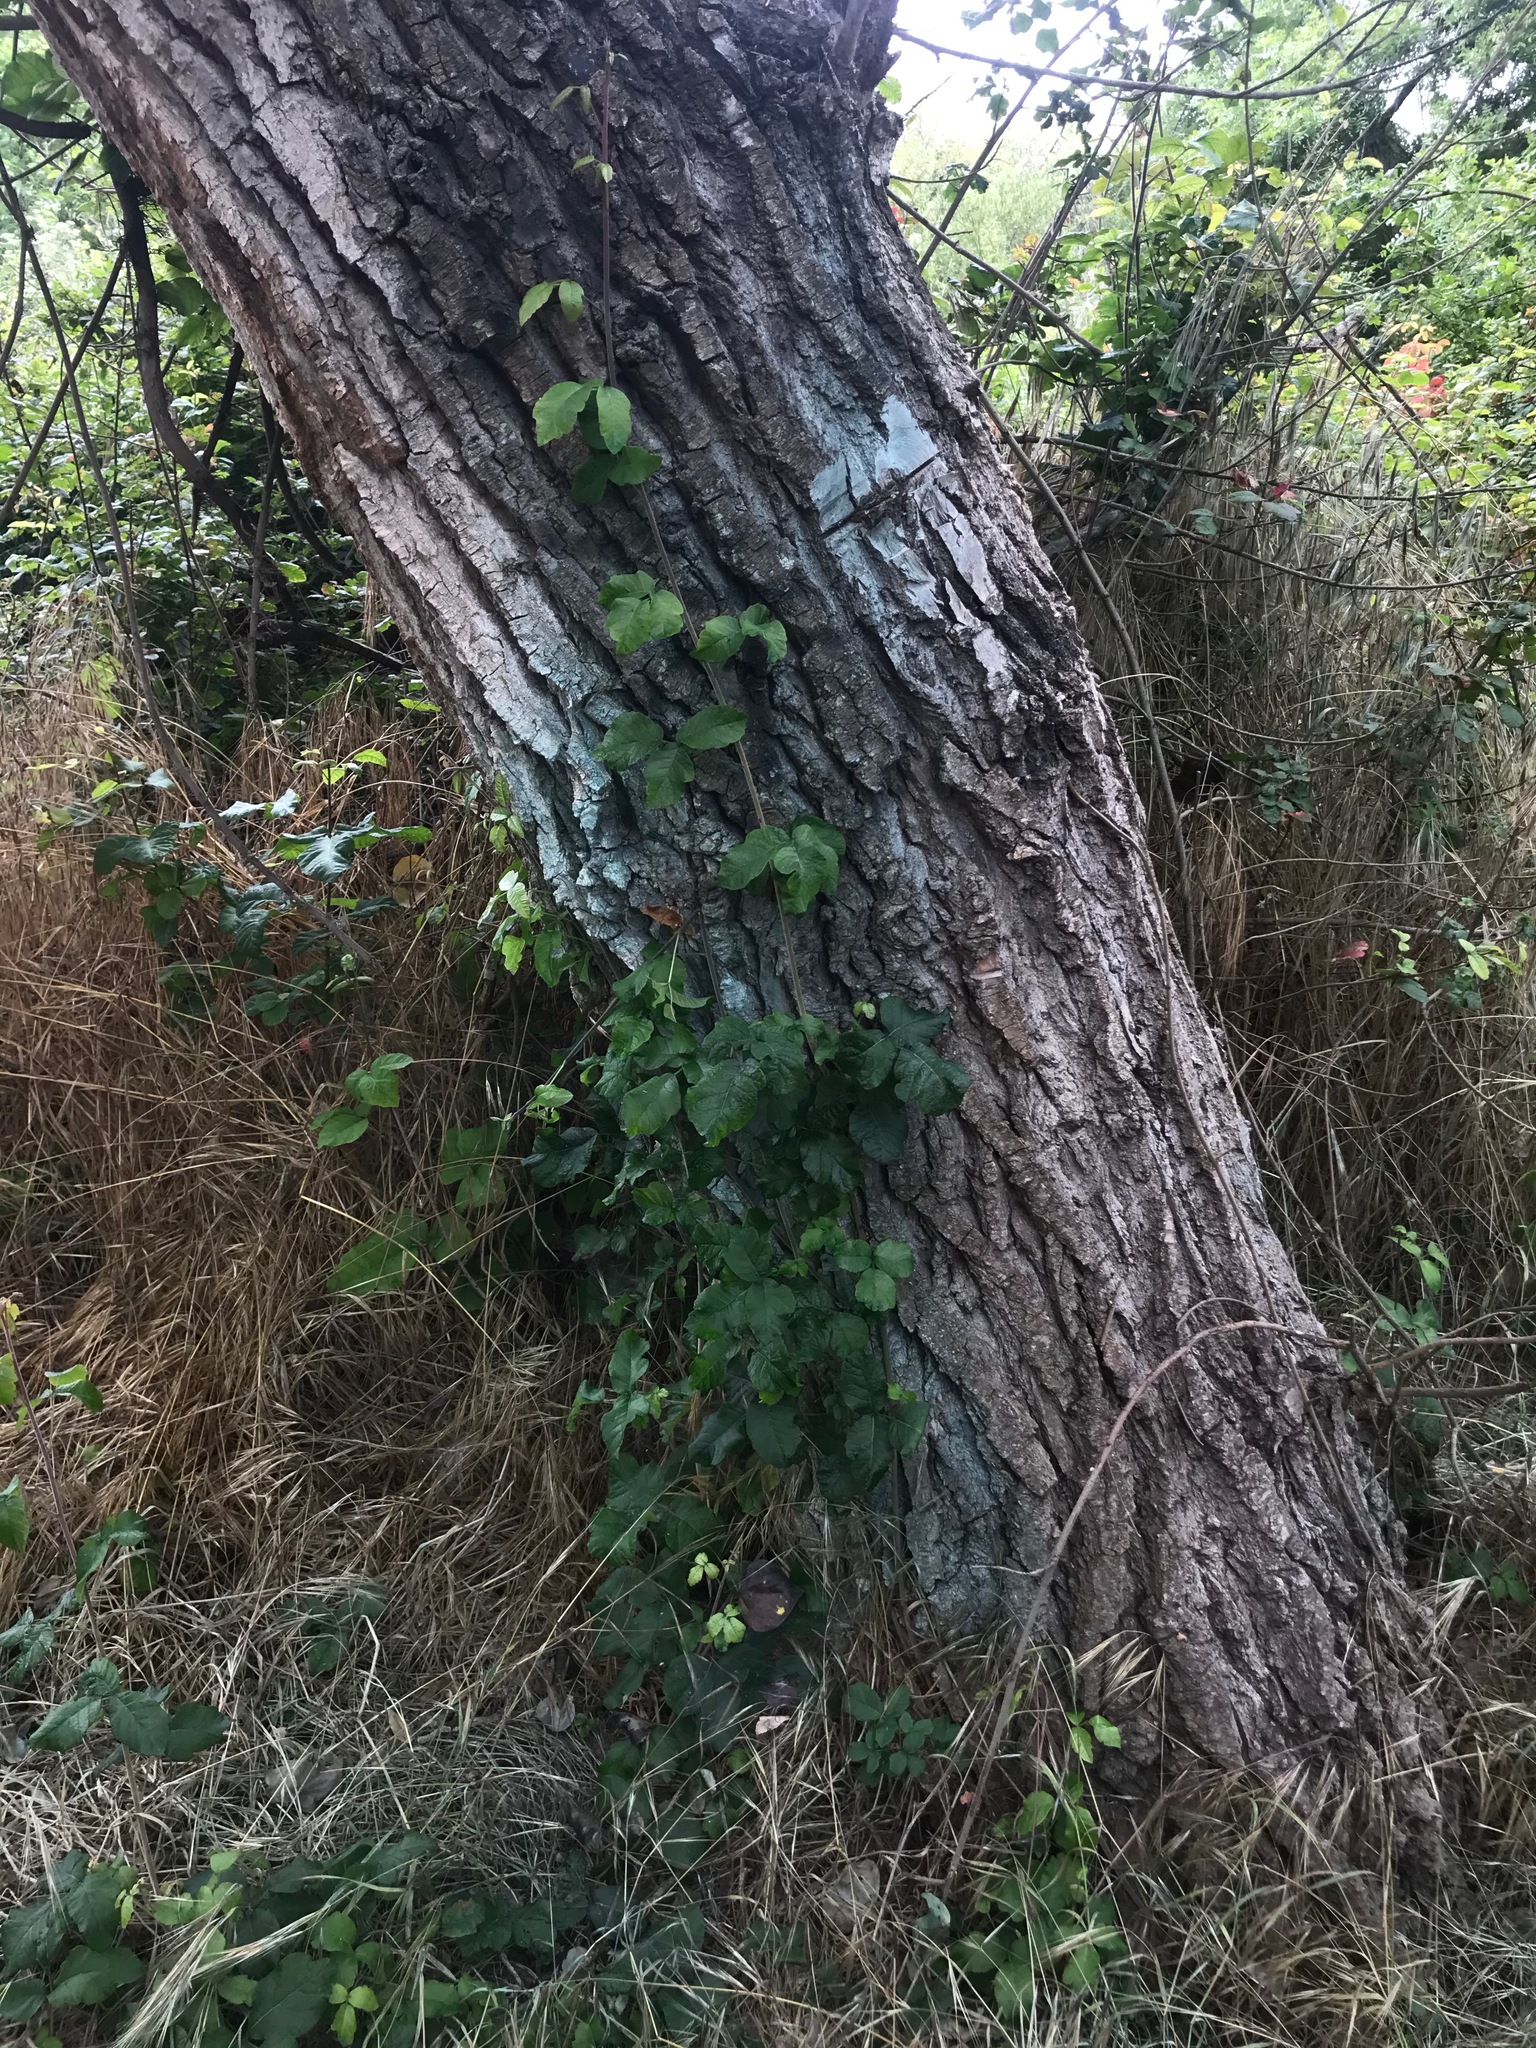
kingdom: Plantae
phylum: Tracheophyta
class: Magnoliopsida
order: Sapindales
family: Anacardiaceae
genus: Toxicodendron
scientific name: Toxicodendron diversilobum
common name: Pacific poison-oak
